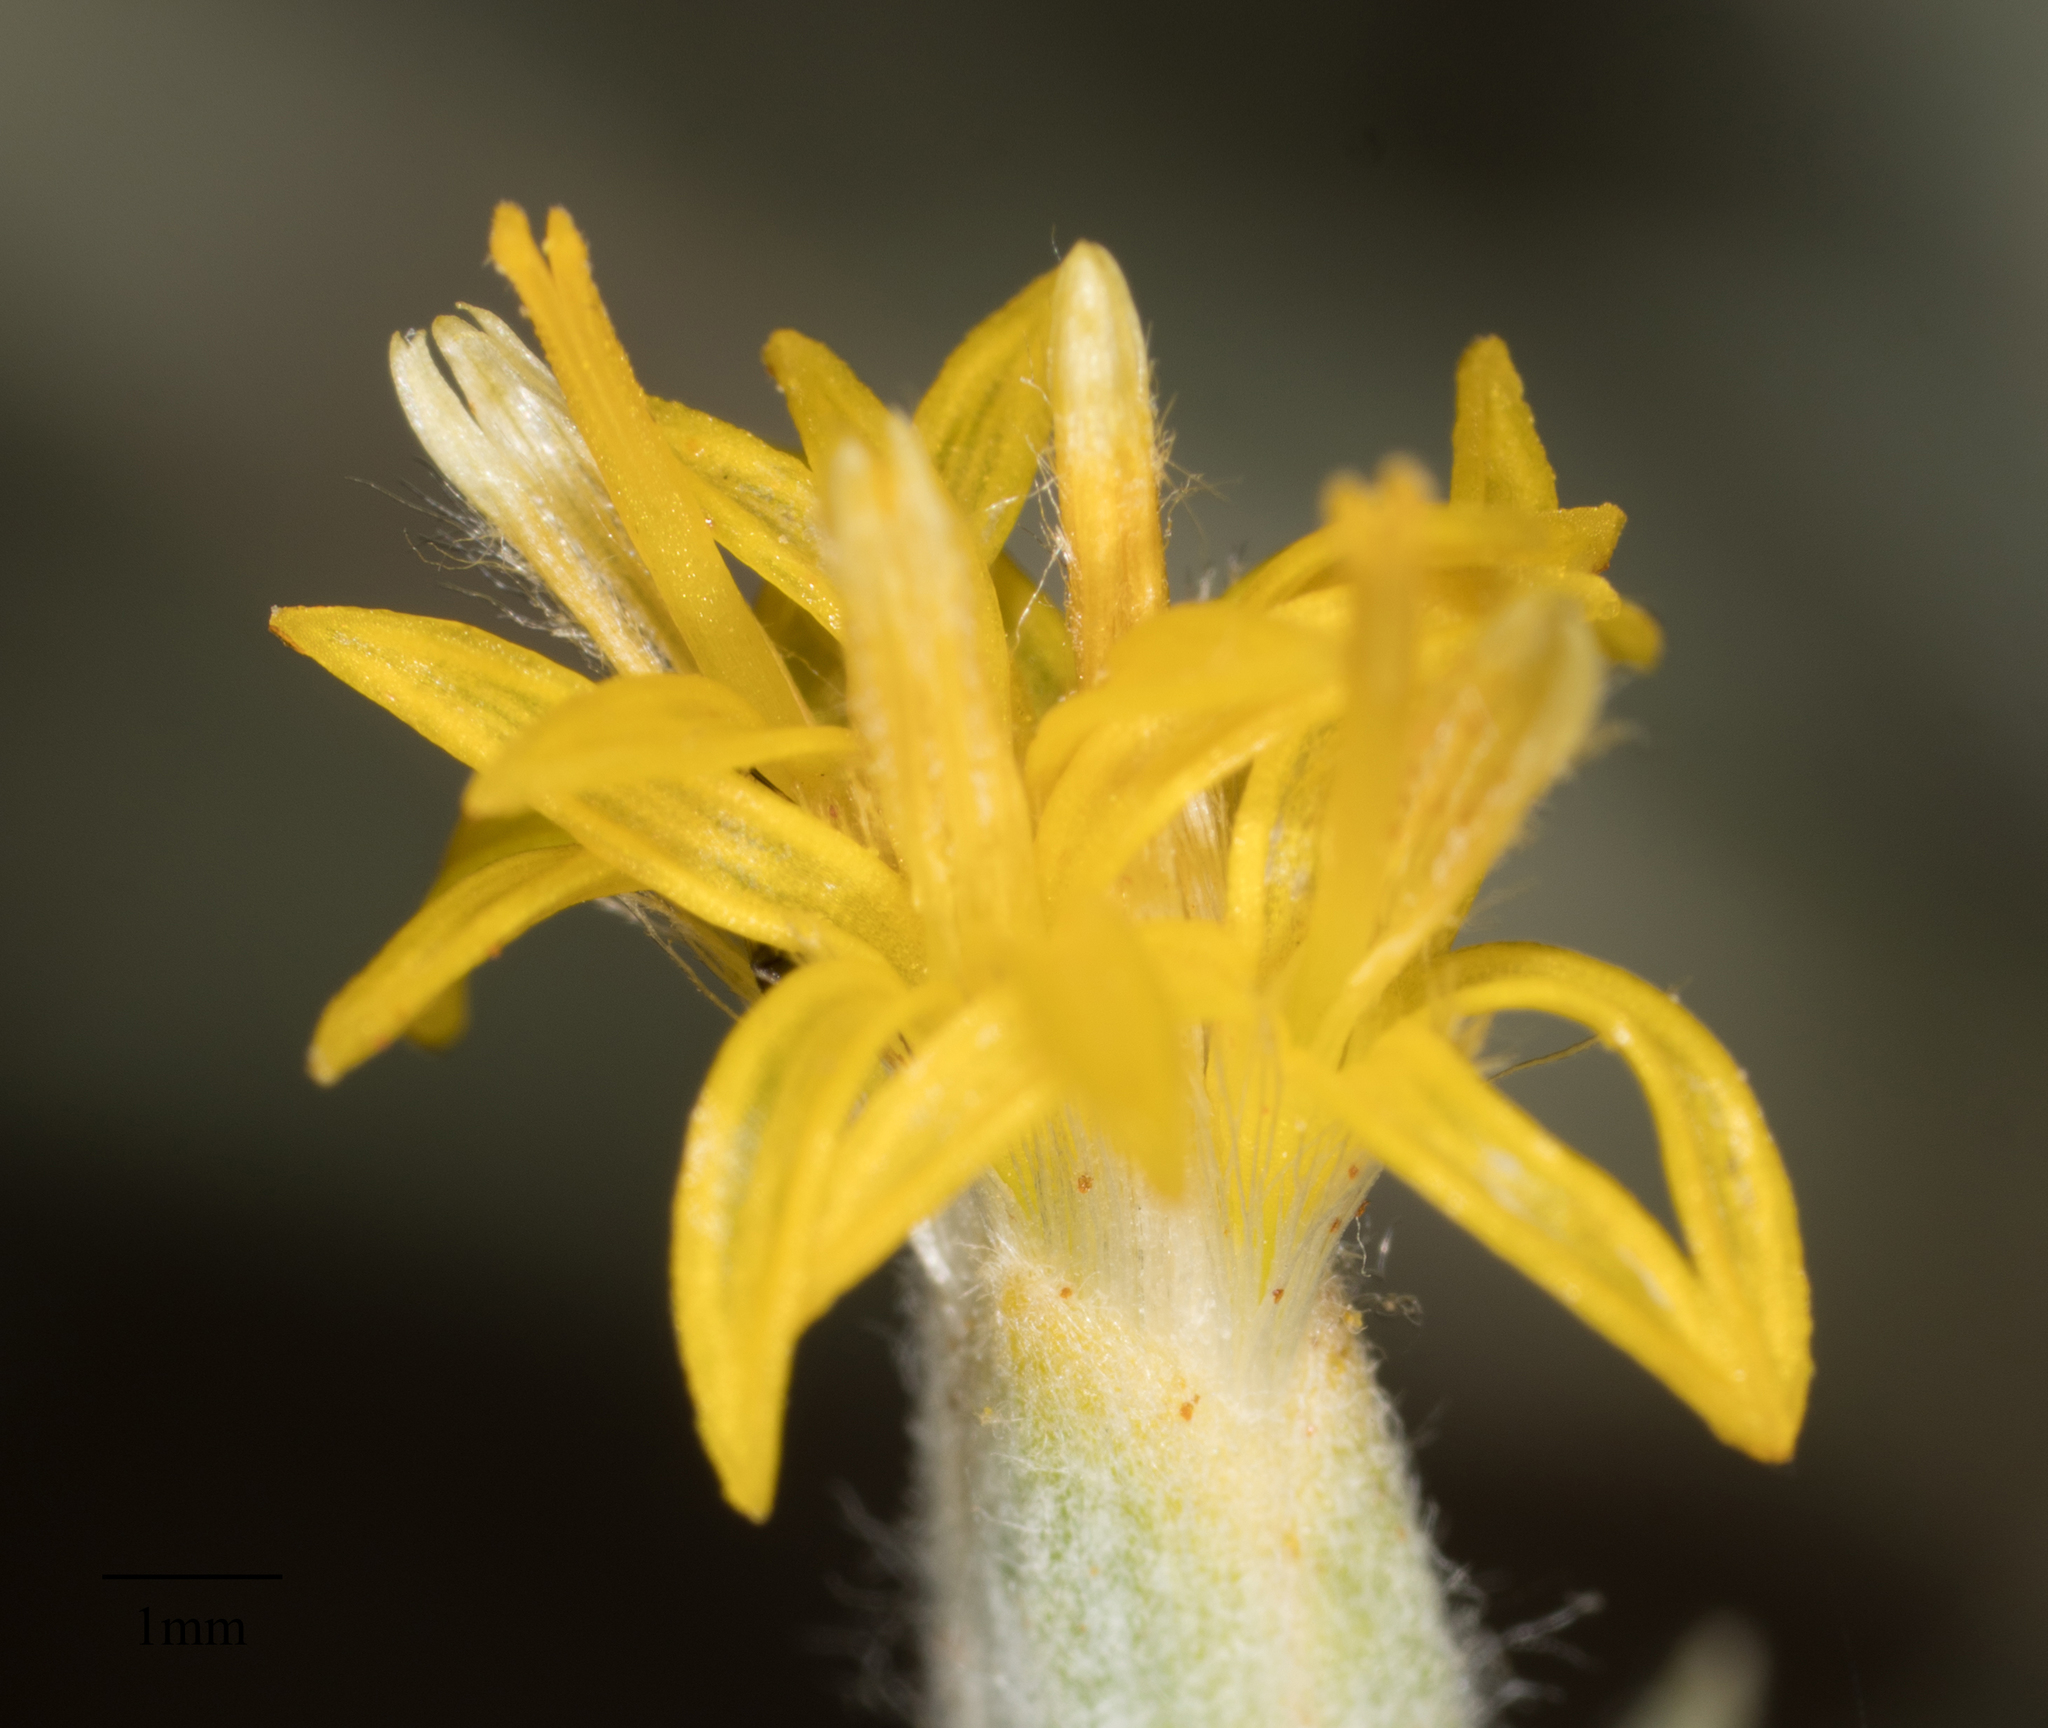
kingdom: Plantae
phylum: Tracheophyta
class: Magnoliopsida
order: Asterales
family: Asteraceae
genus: Tetradymia
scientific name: Tetradymia canescens
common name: Spineless horsebrush
